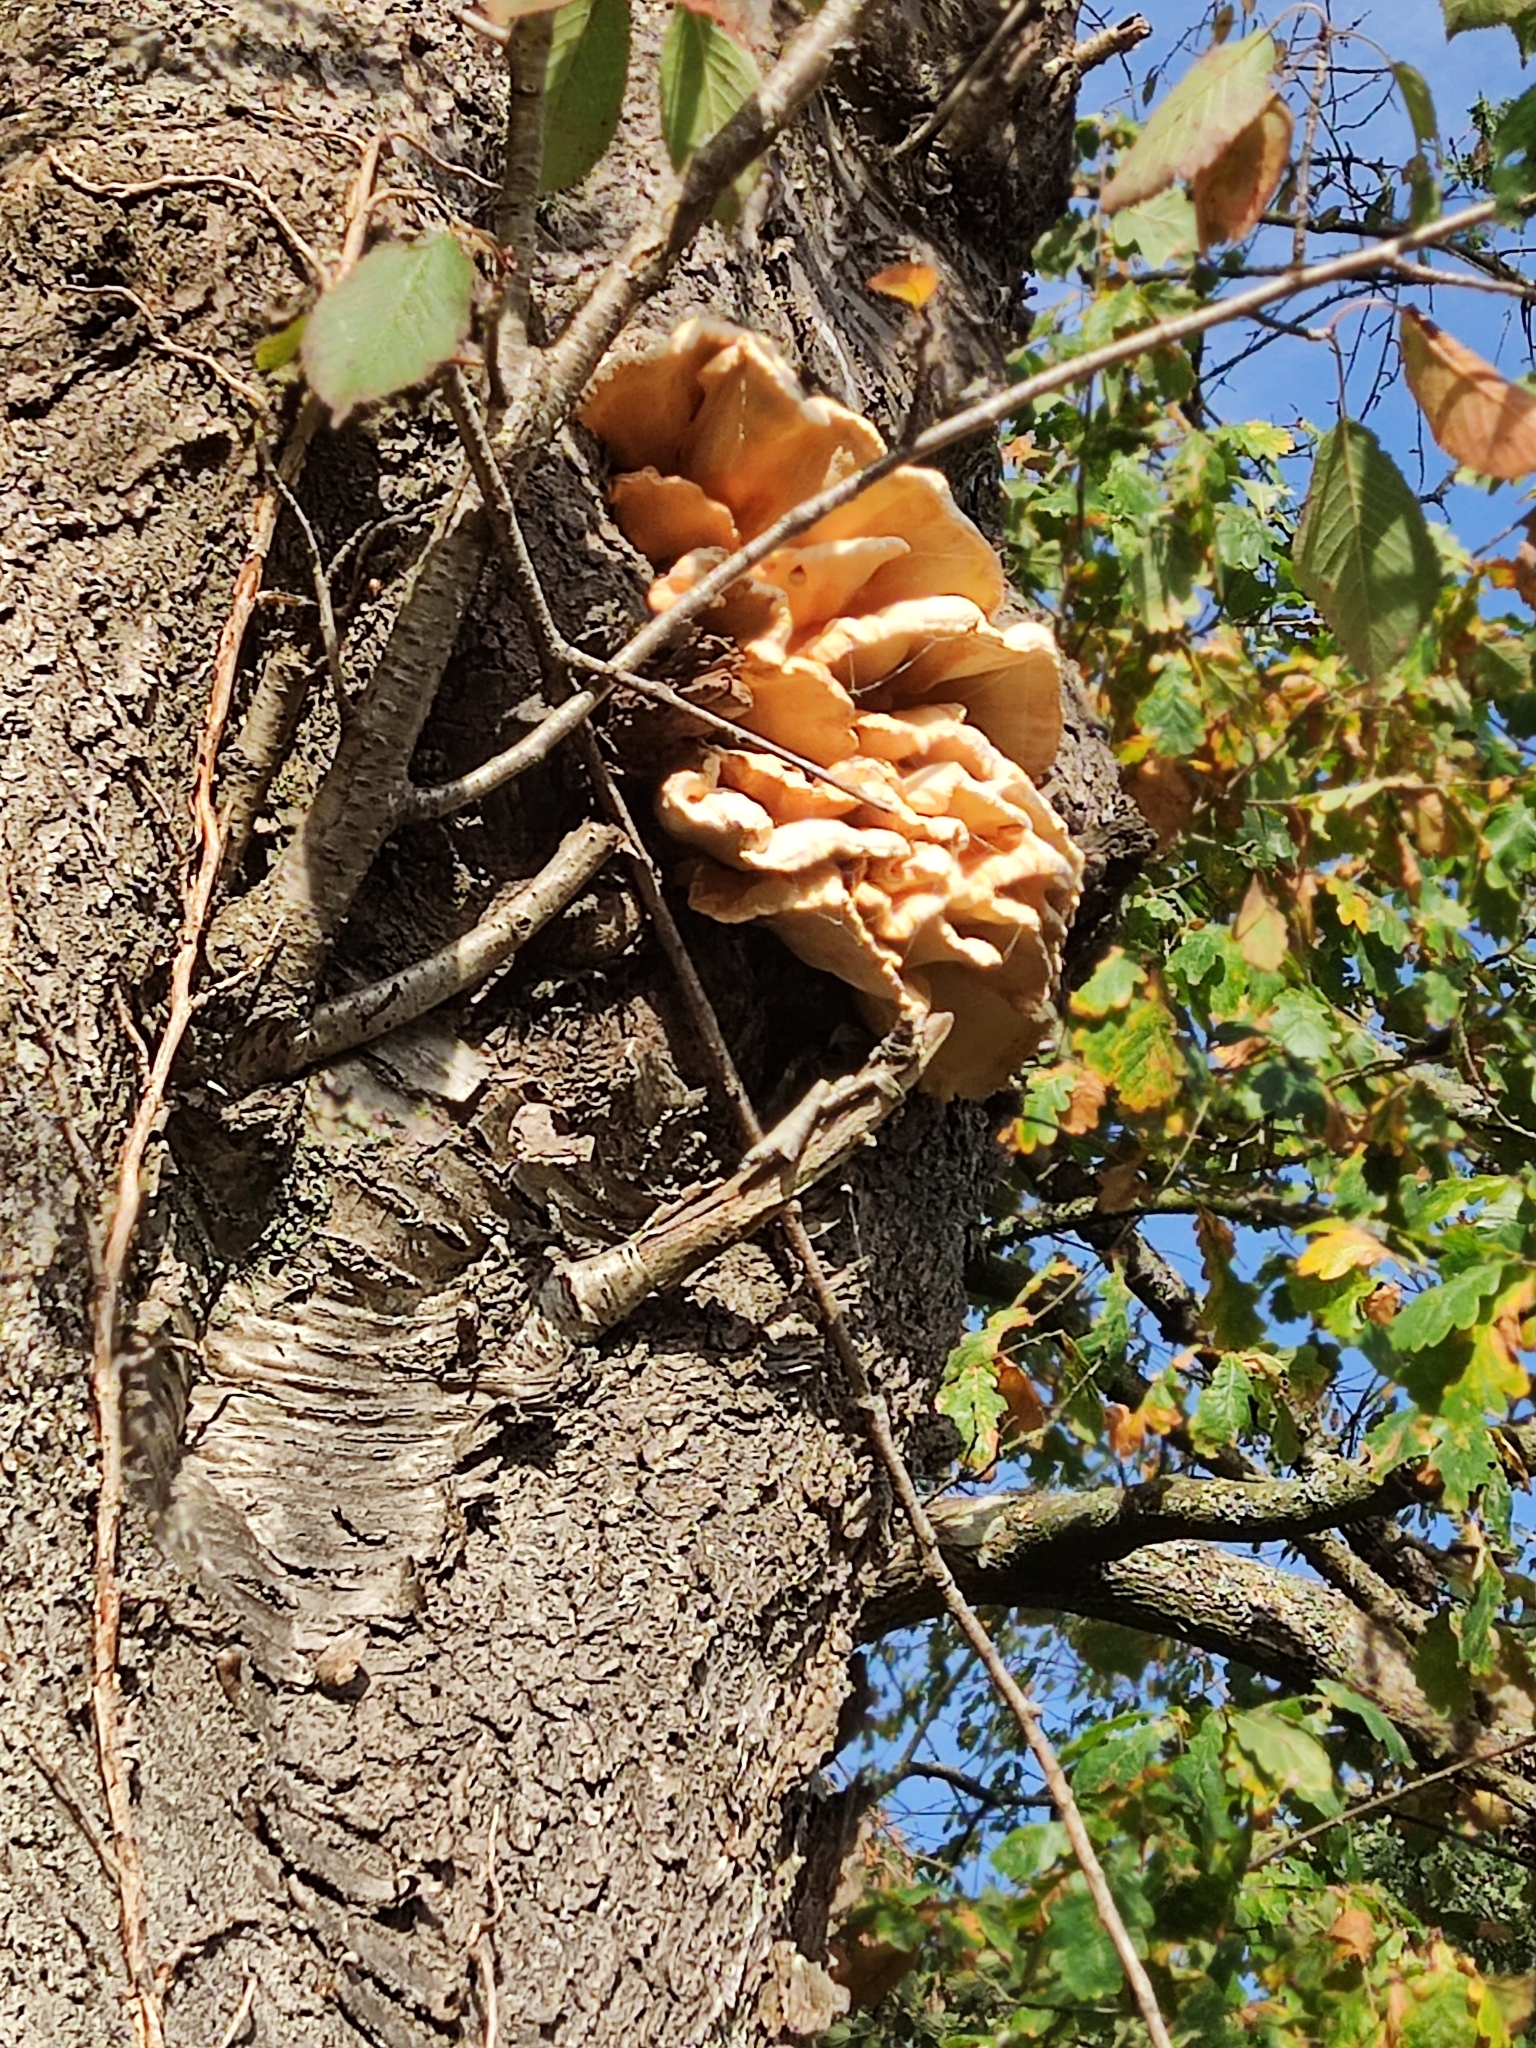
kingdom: Fungi
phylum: Basidiomycota
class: Agaricomycetes
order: Polyporales
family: Laetiporaceae
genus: Laetiporus
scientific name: Laetiporus sulphureus
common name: Chicken of the woods
